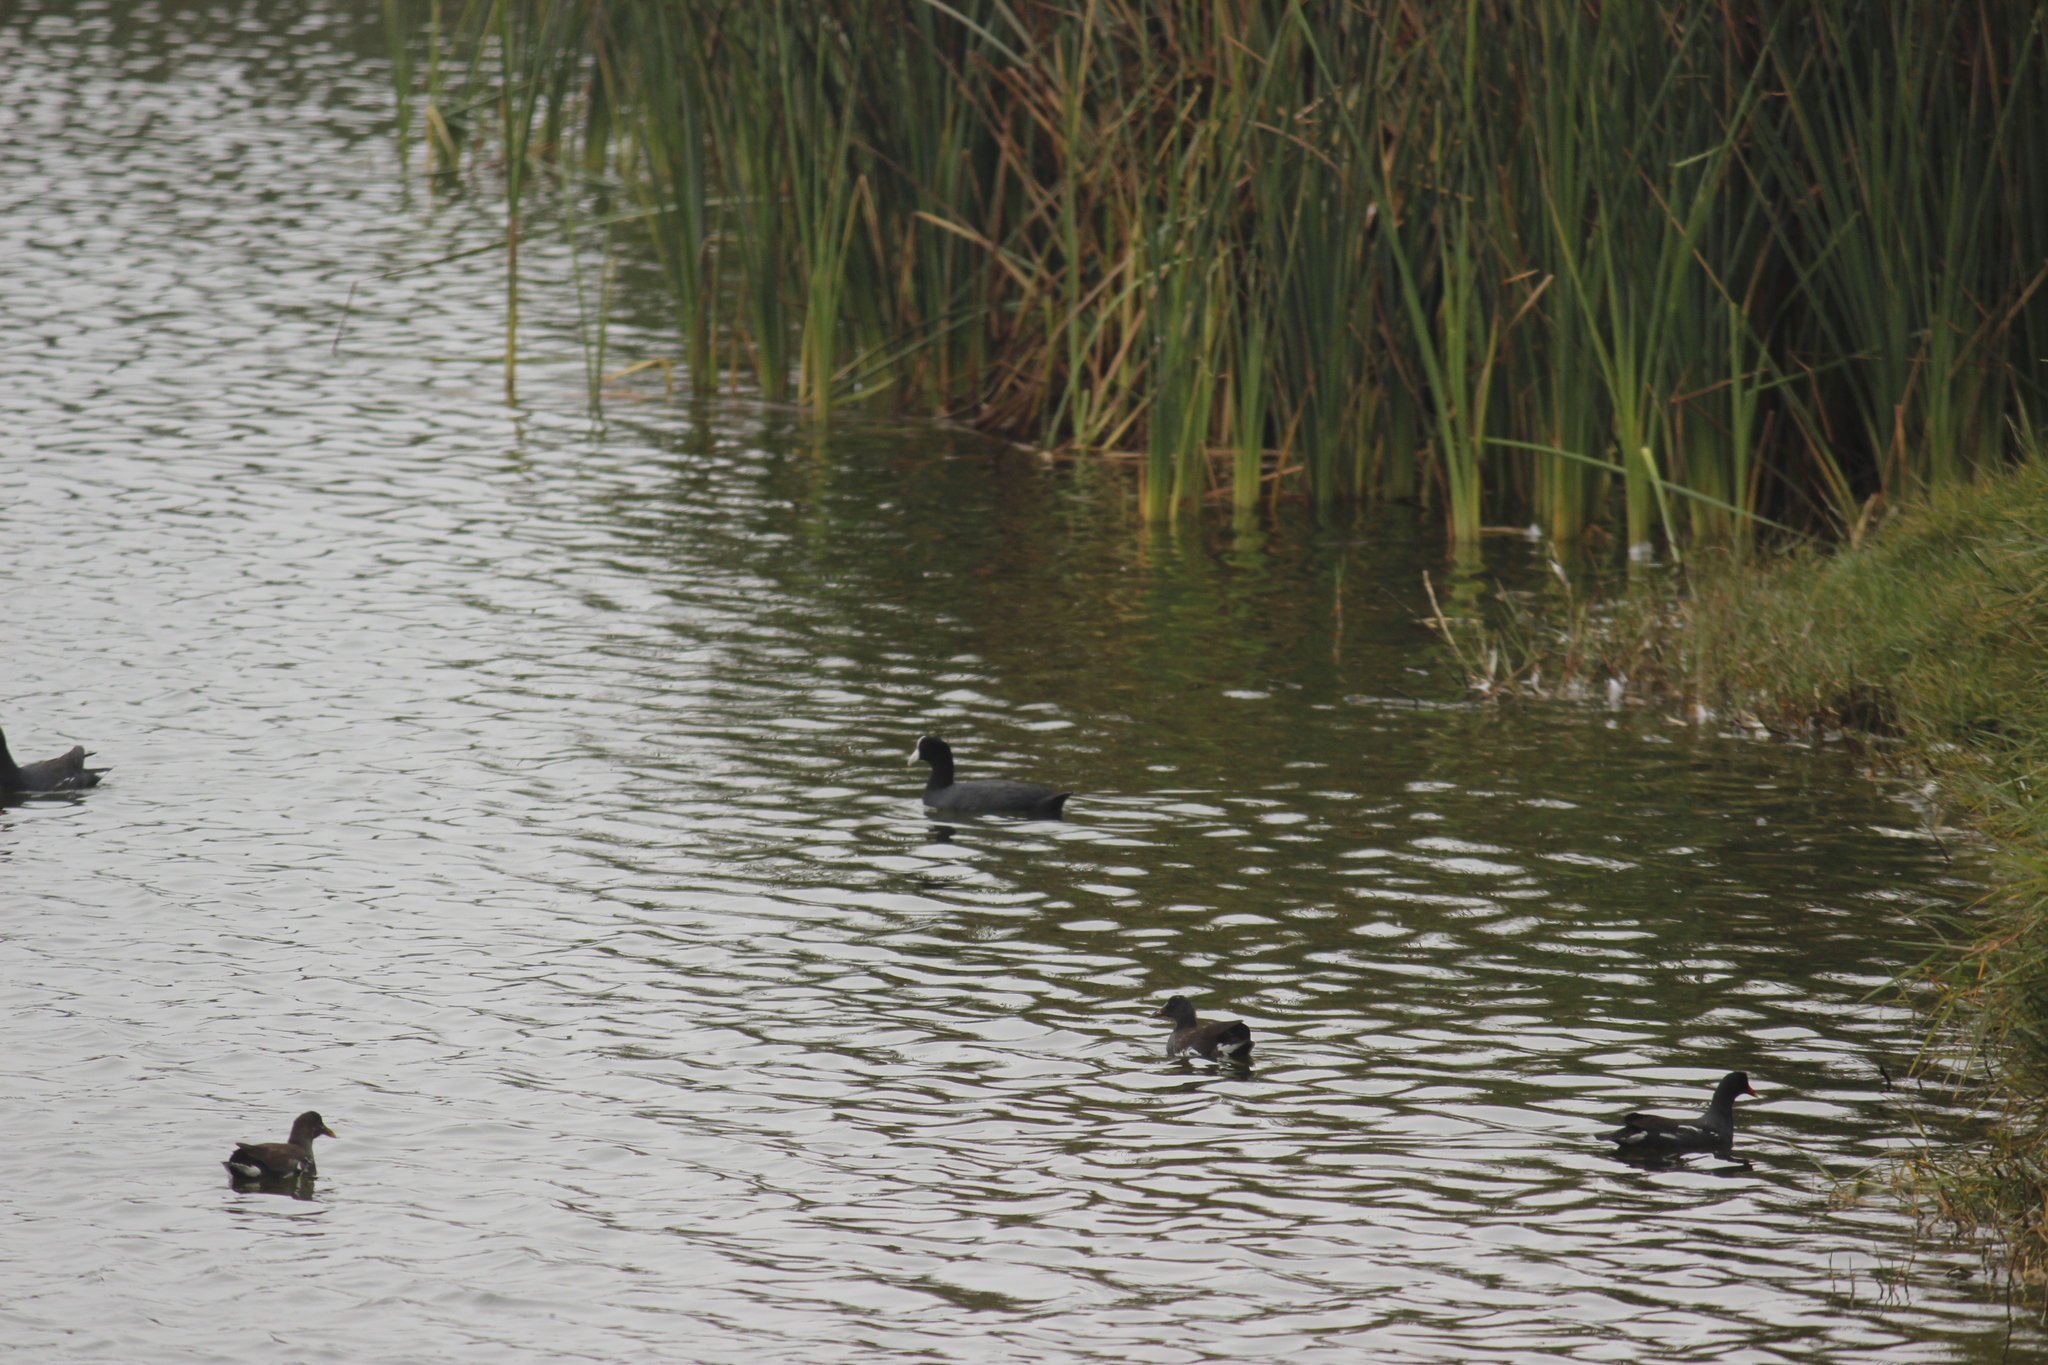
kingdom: Animalia
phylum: Chordata
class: Aves
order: Gruiformes
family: Rallidae
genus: Fulica
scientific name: Fulica ardesiaca
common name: Andean coot
